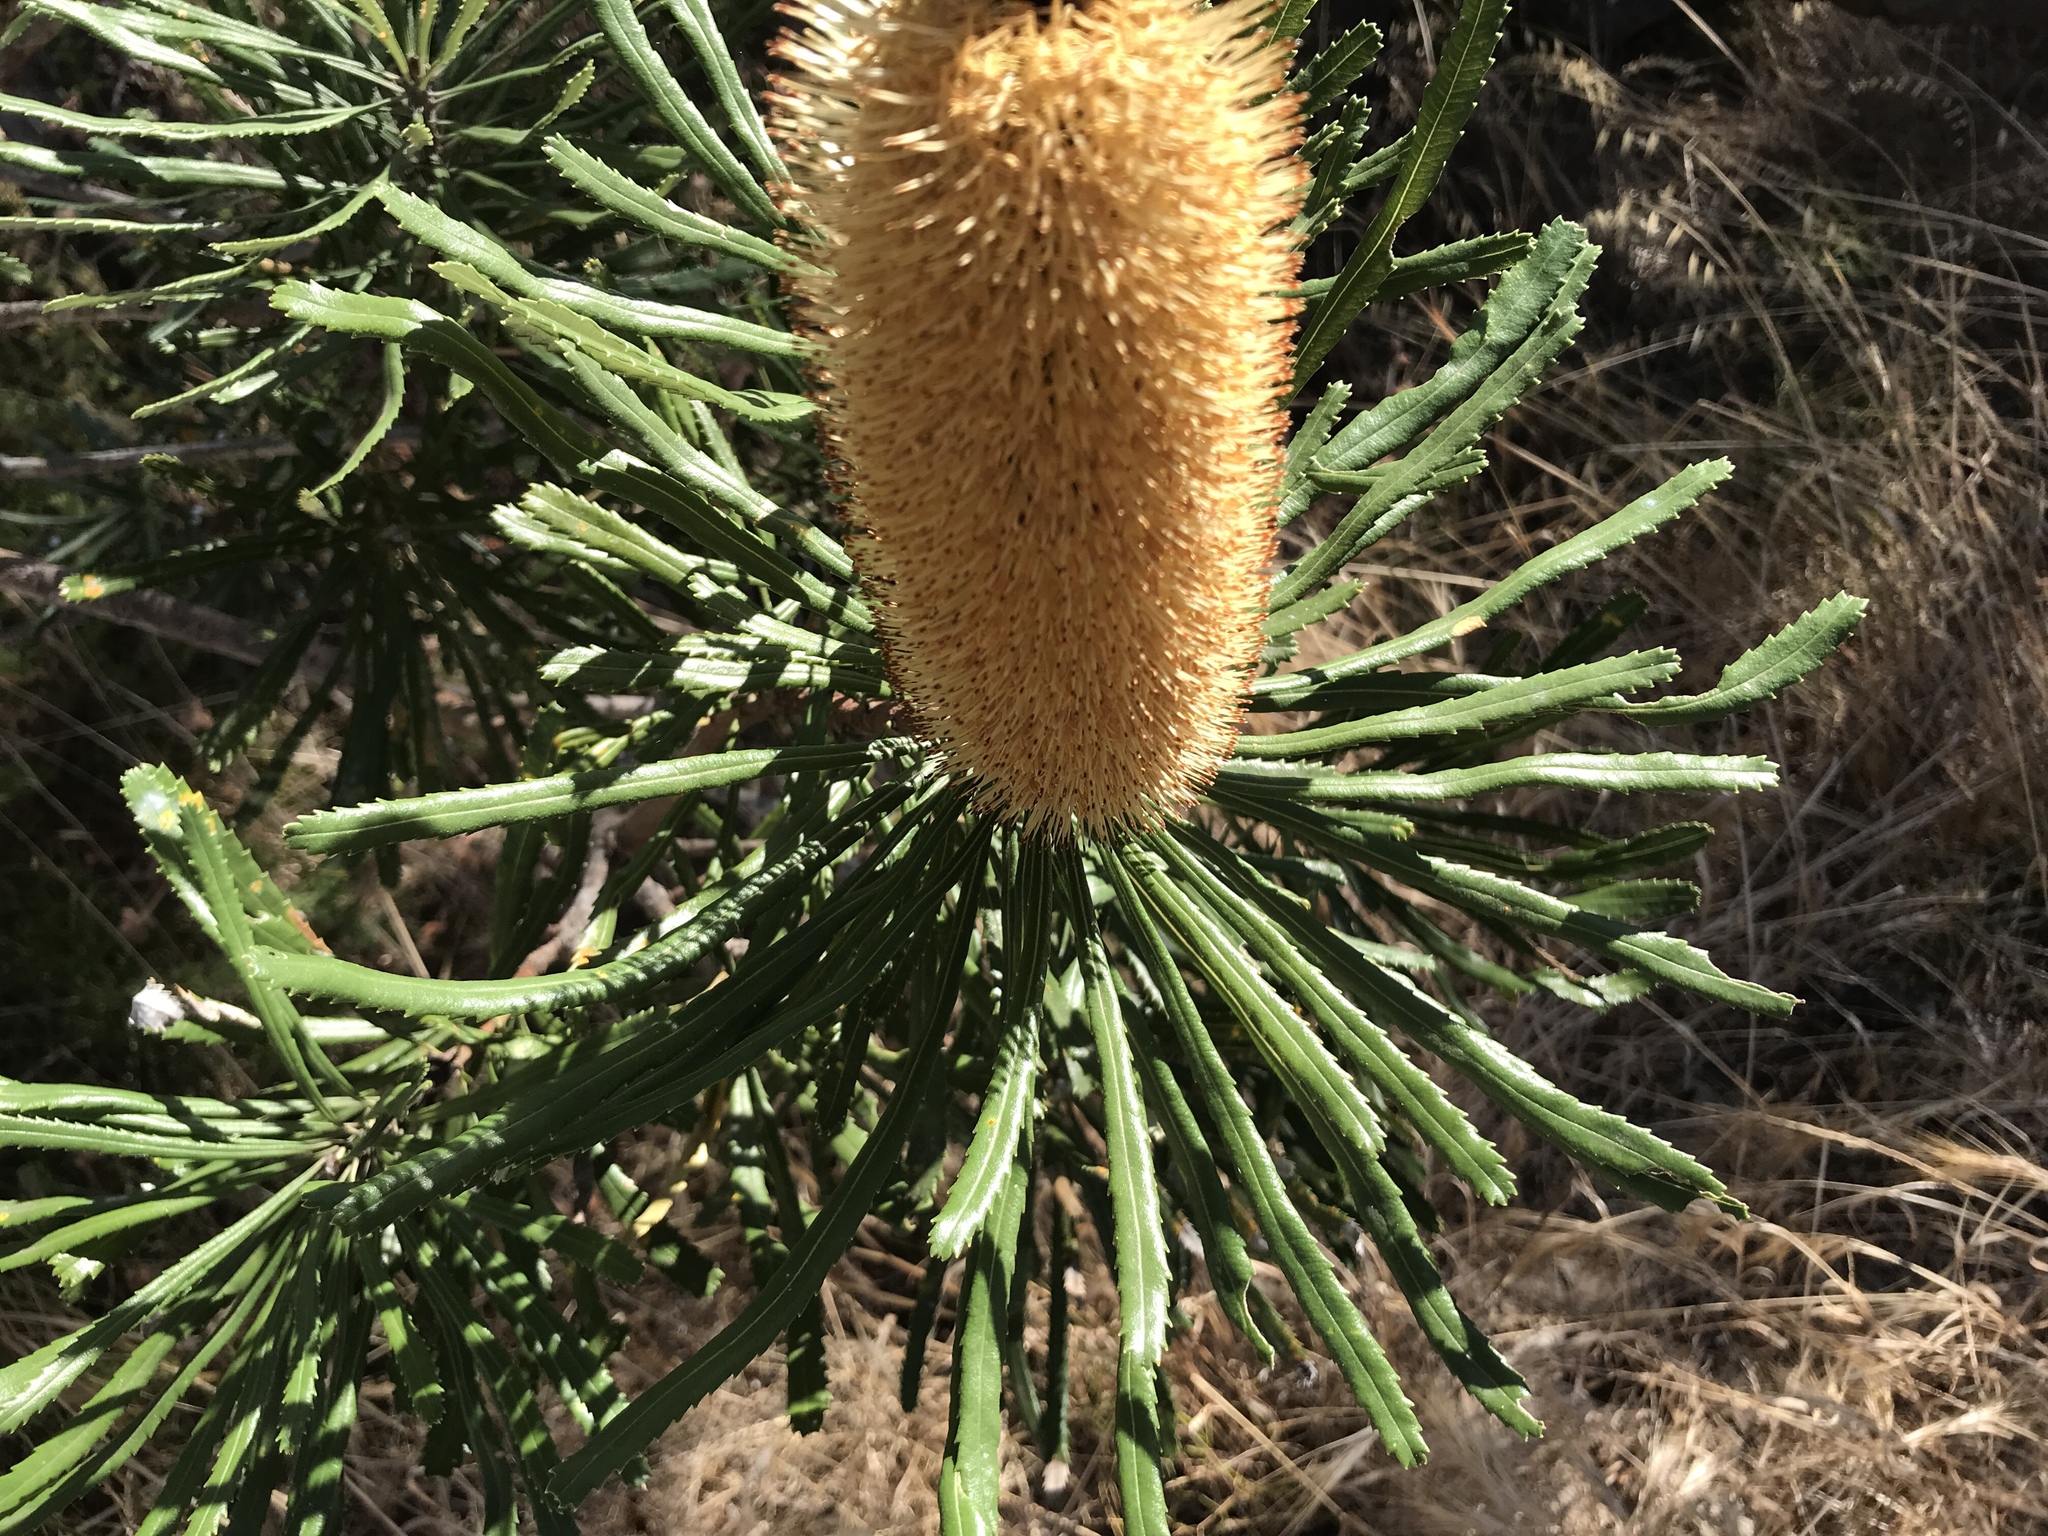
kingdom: Plantae
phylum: Tracheophyta
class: Magnoliopsida
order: Proteales
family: Proteaceae
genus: Banksia
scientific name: Banksia attenuata
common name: Coast banksia
